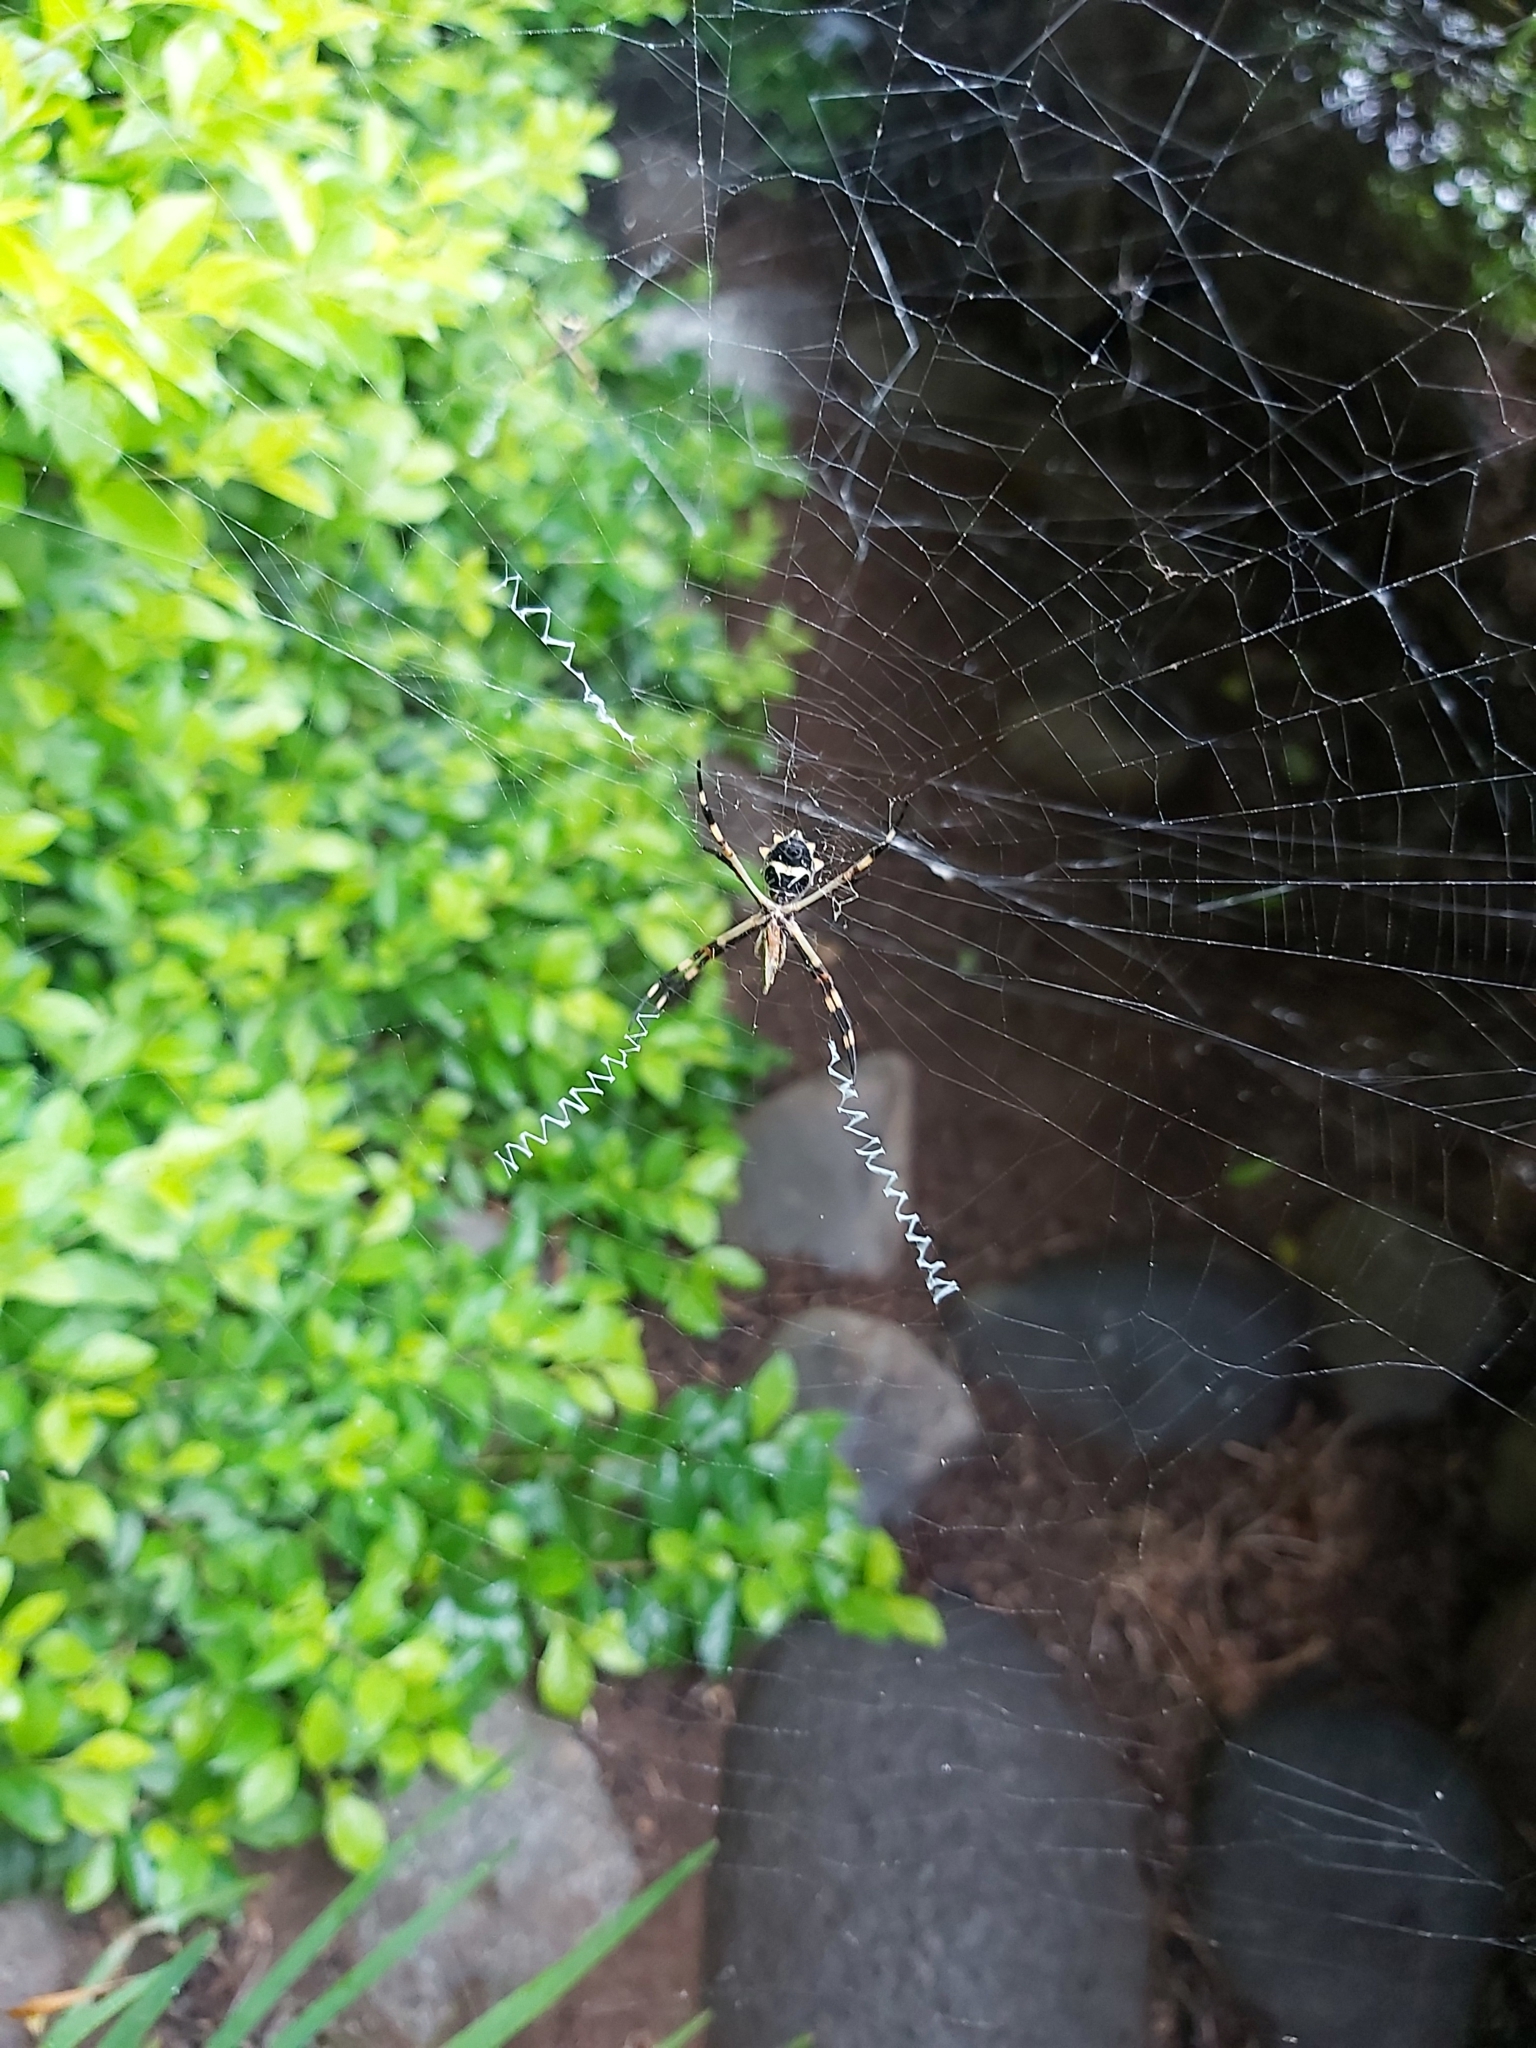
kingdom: Animalia
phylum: Arthropoda
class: Arachnida
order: Araneae
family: Araneidae
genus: Argiope
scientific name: Argiope argentata
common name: Orb weavers
